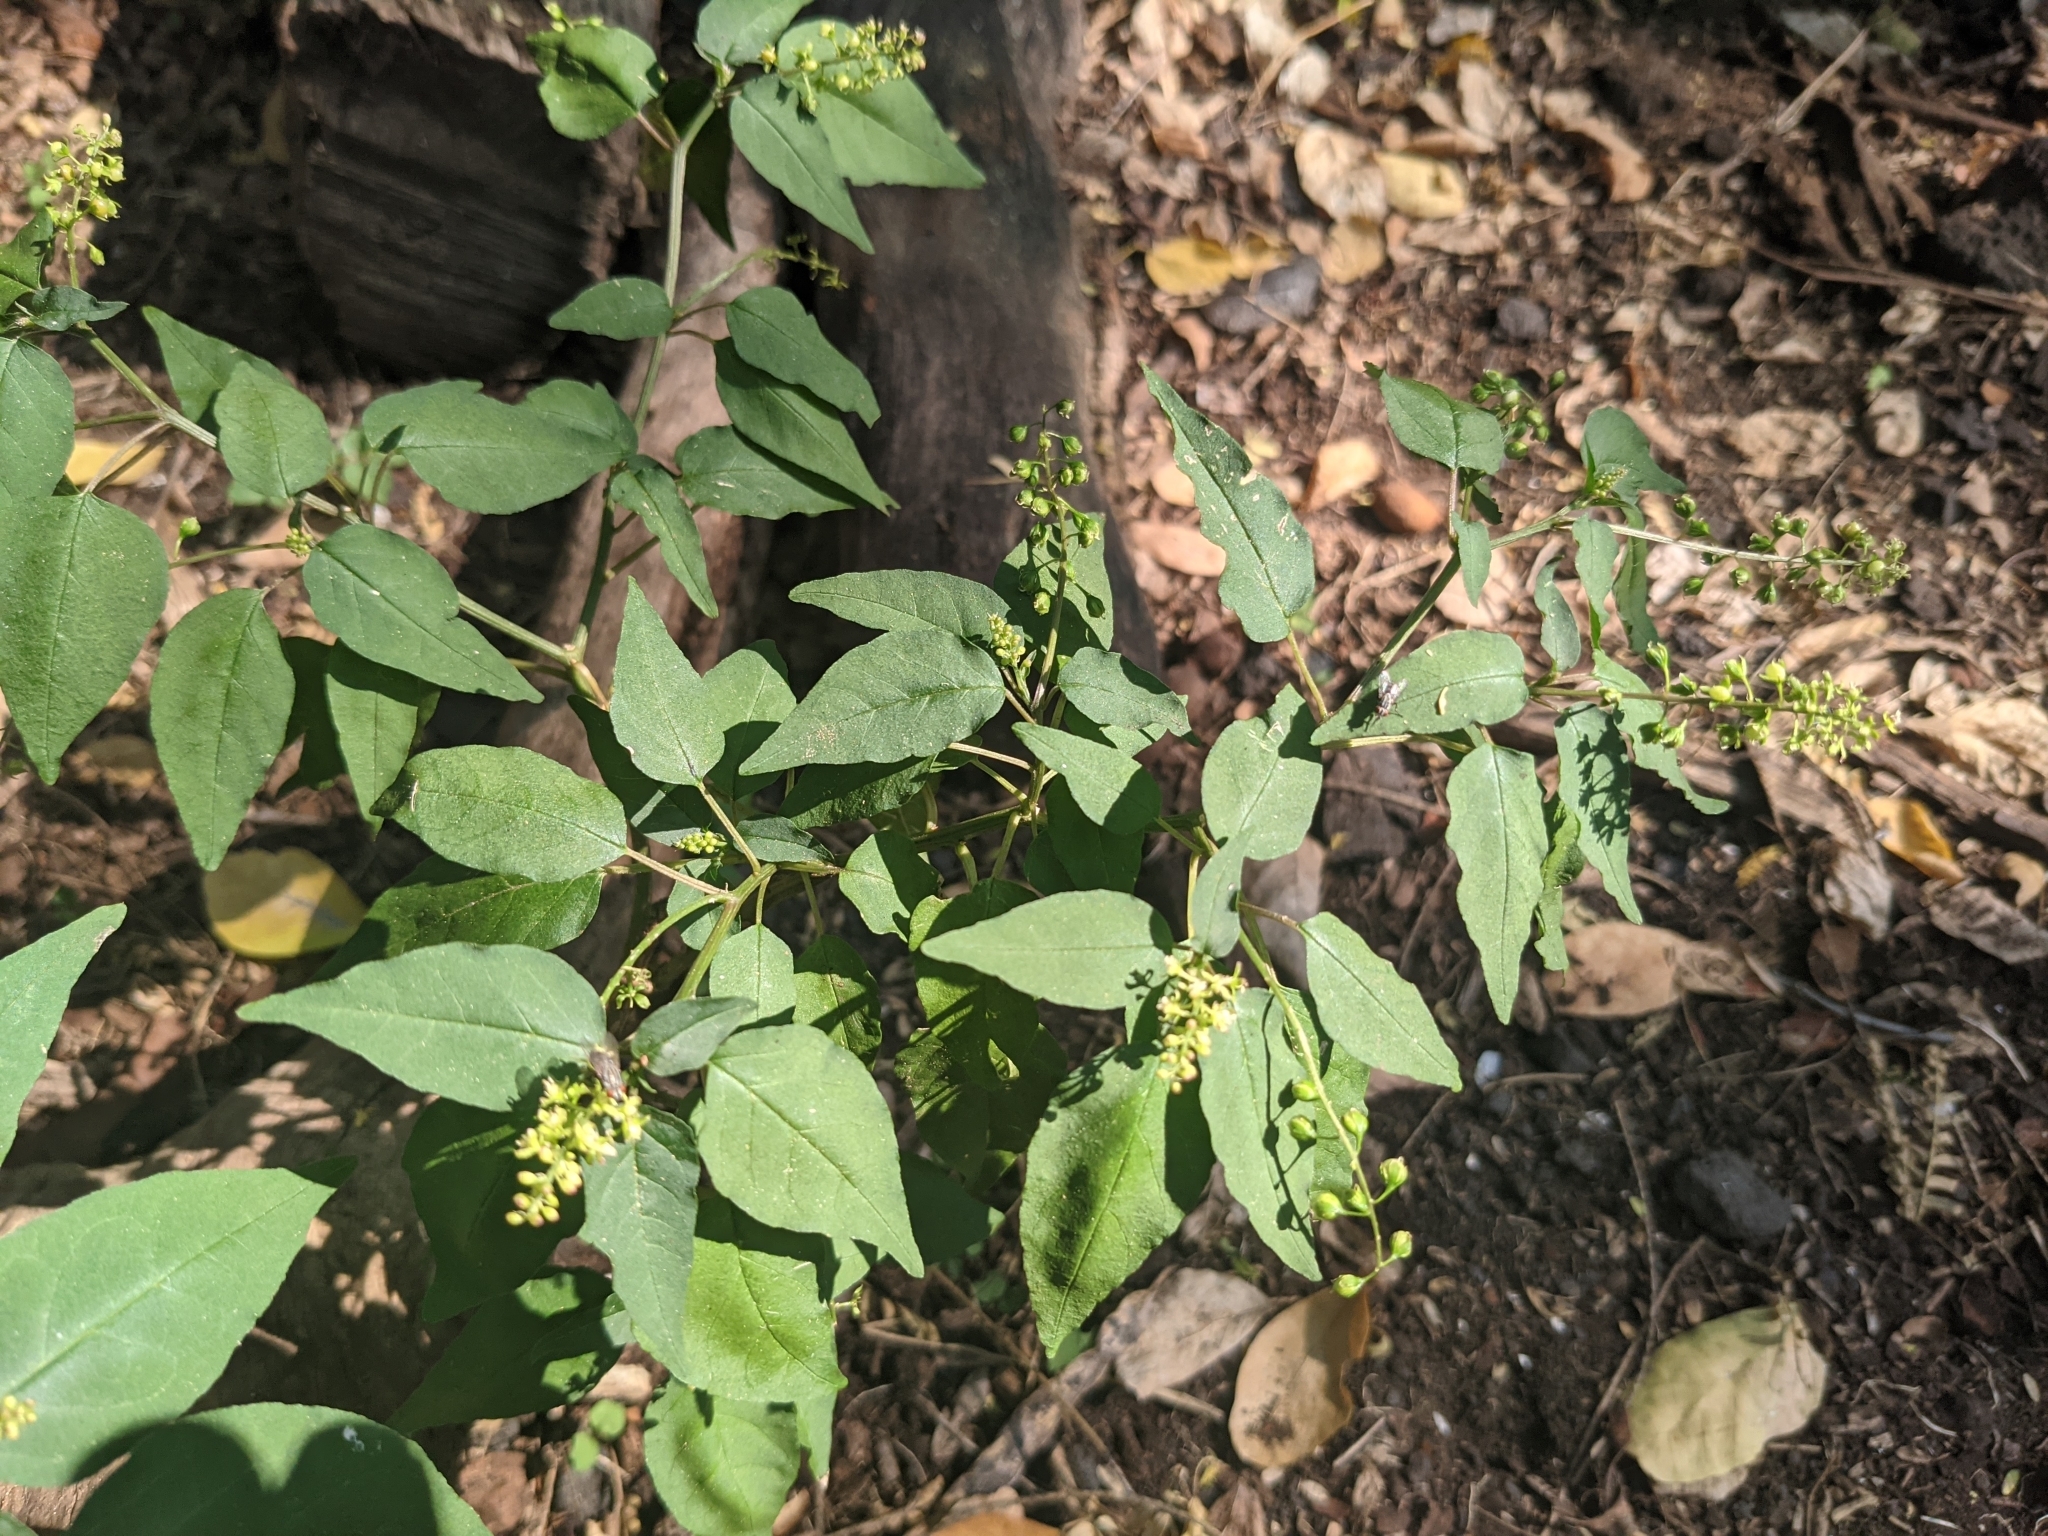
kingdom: Plantae
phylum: Tracheophyta
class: Magnoliopsida
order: Caryophyllales
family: Phytolaccaceae
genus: Rivina
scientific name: Rivina humilis
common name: Rougeplant
